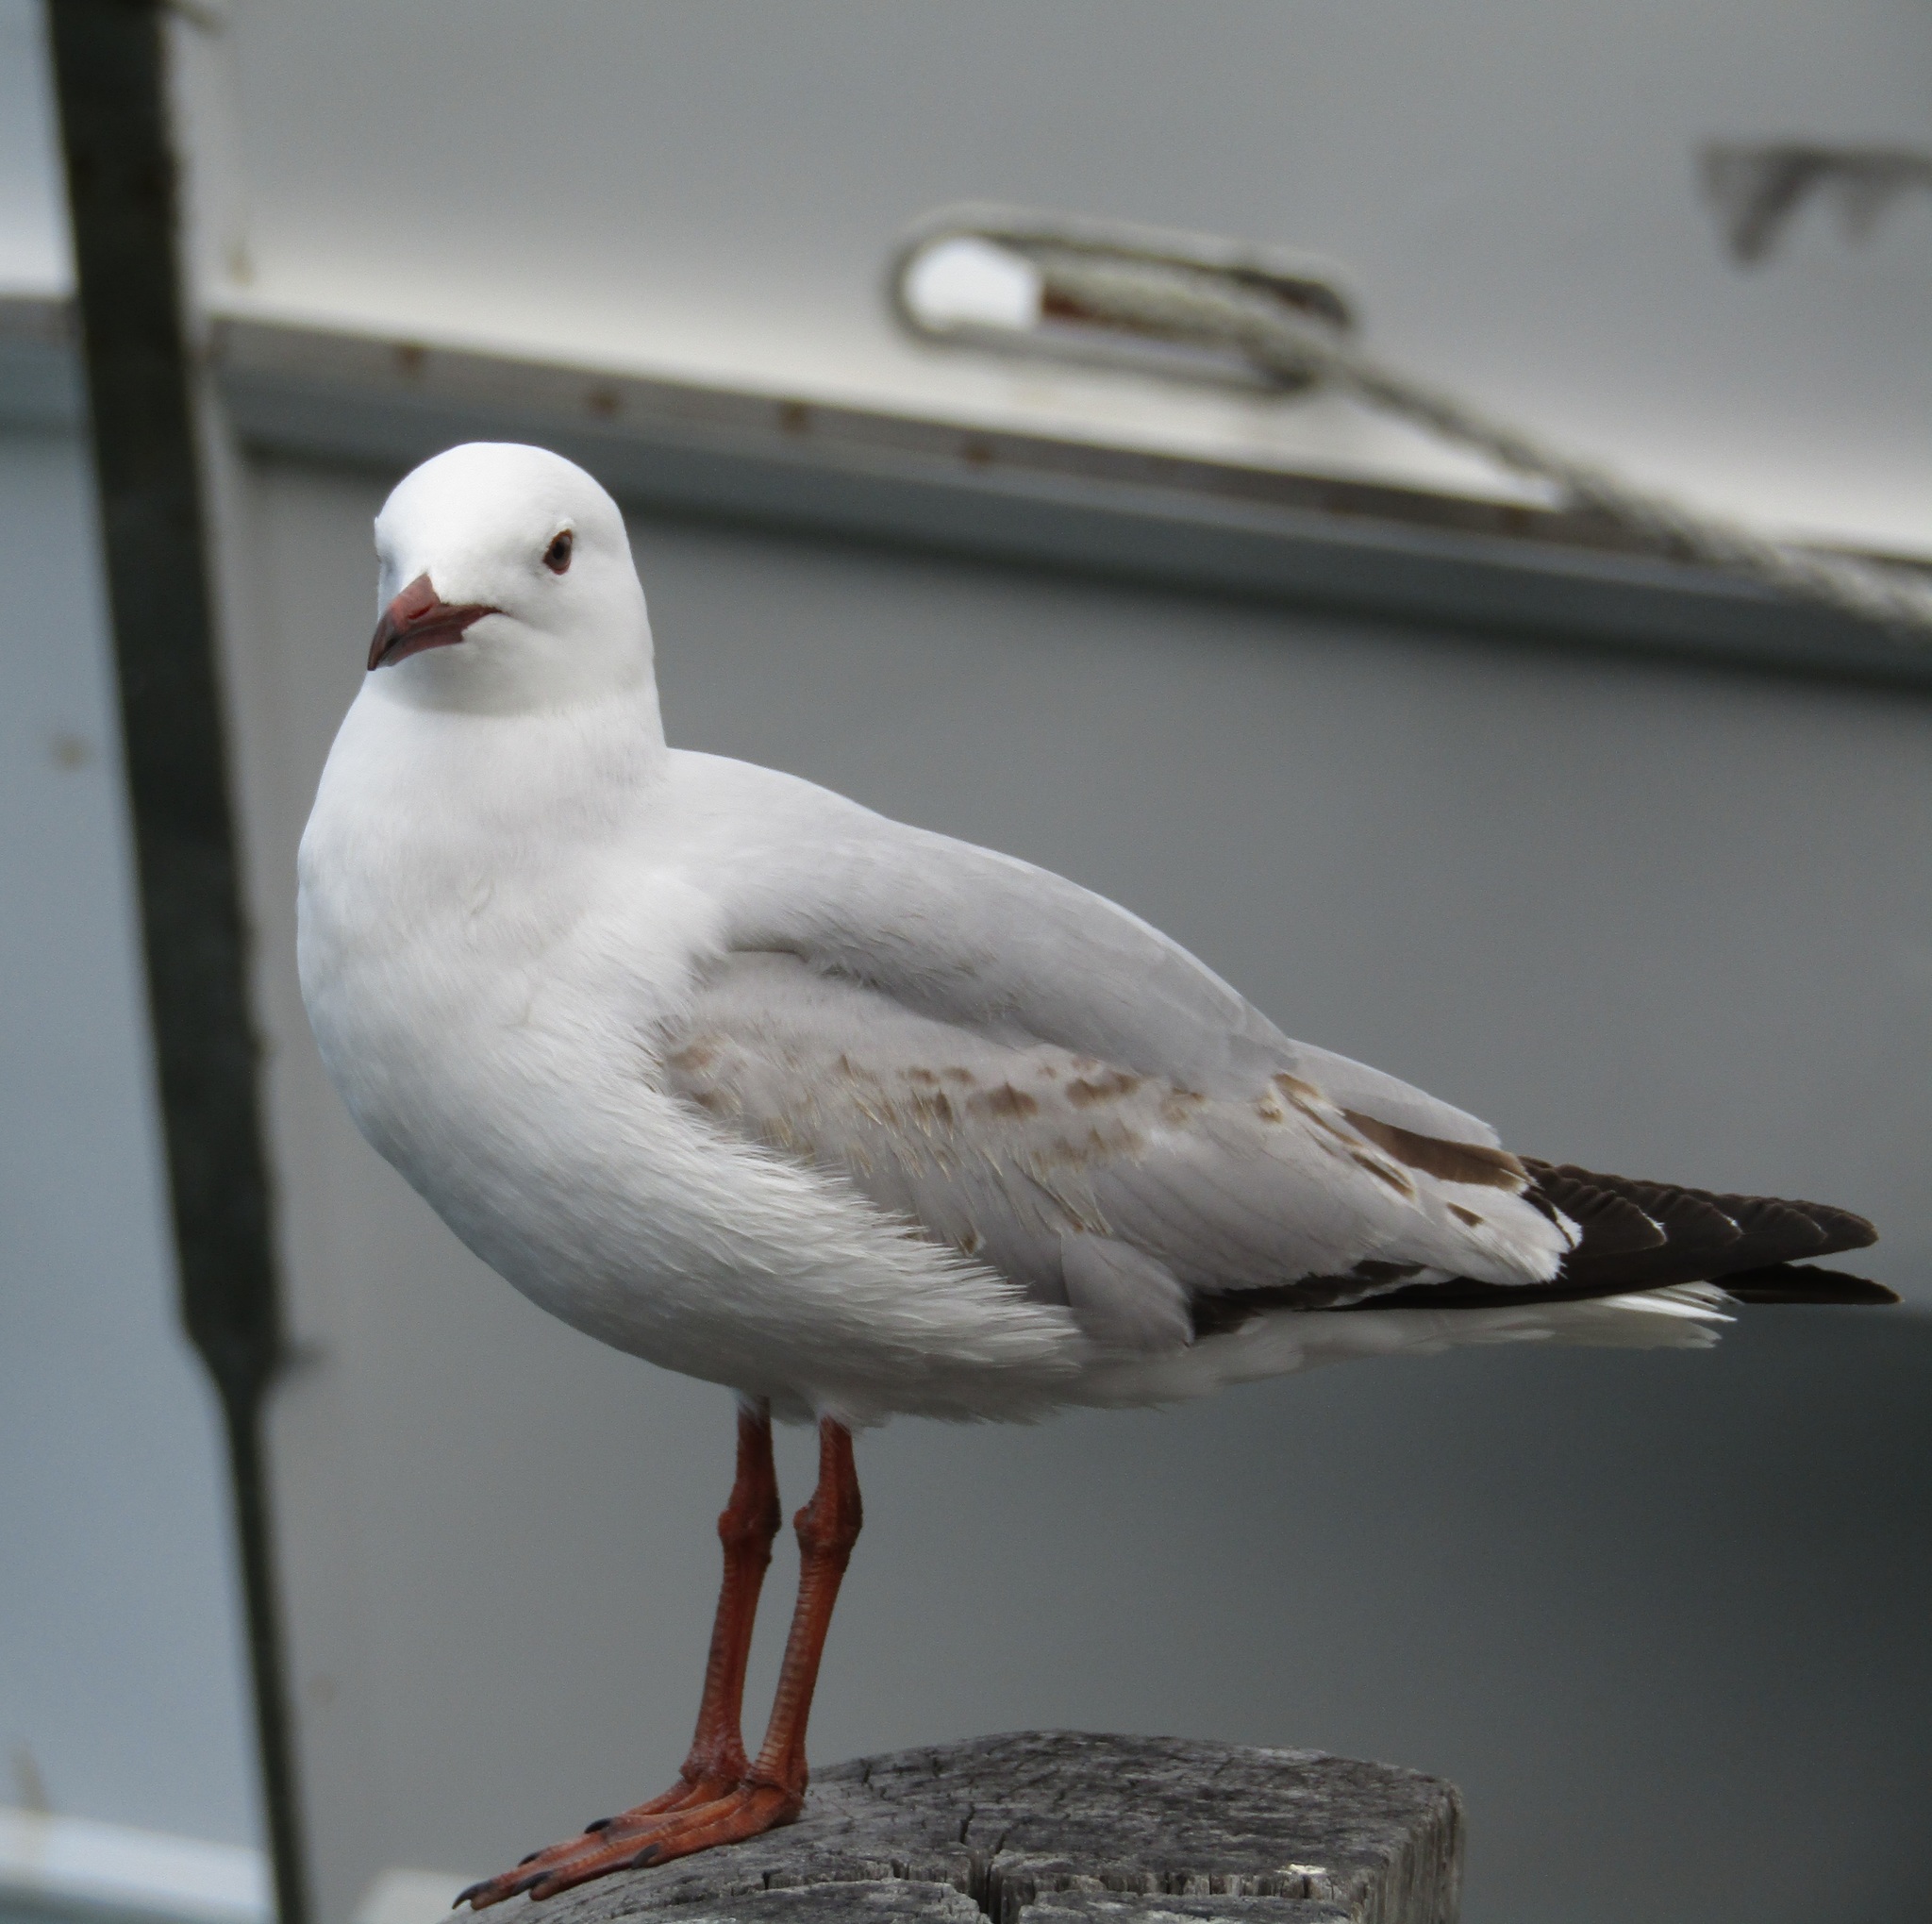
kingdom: Animalia
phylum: Chordata
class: Aves
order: Charadriiformes
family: Laridae
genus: Chroicocephalus
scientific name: Chroicocephalus novaehollandiae
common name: Silver gull
